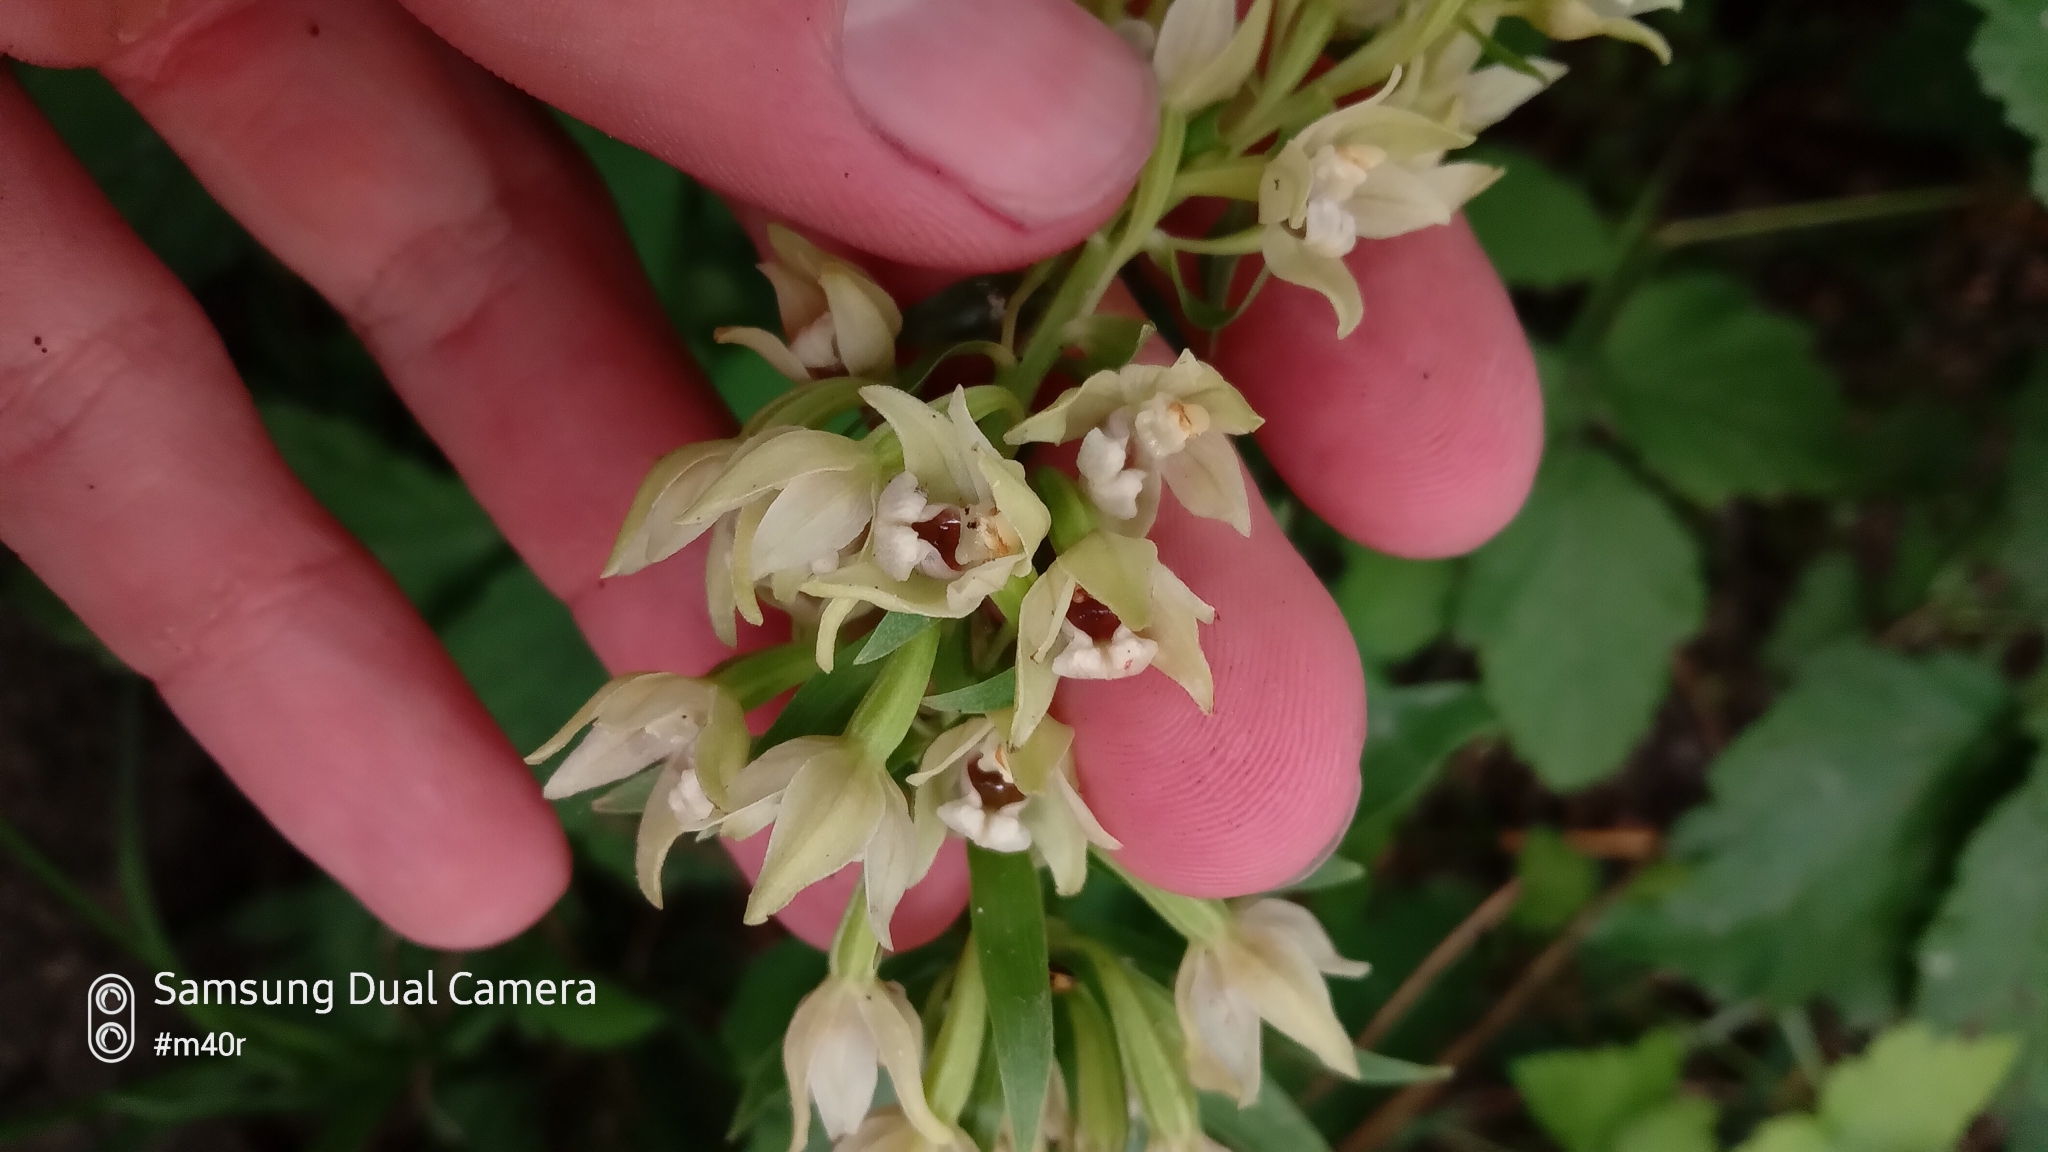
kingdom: Plantae
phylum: Tracheophyta
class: Liliopsida
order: Asparagales
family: Orchidaceae
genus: Epipactis
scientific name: Epipactis helleborine
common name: Broad-leaved helleborine
